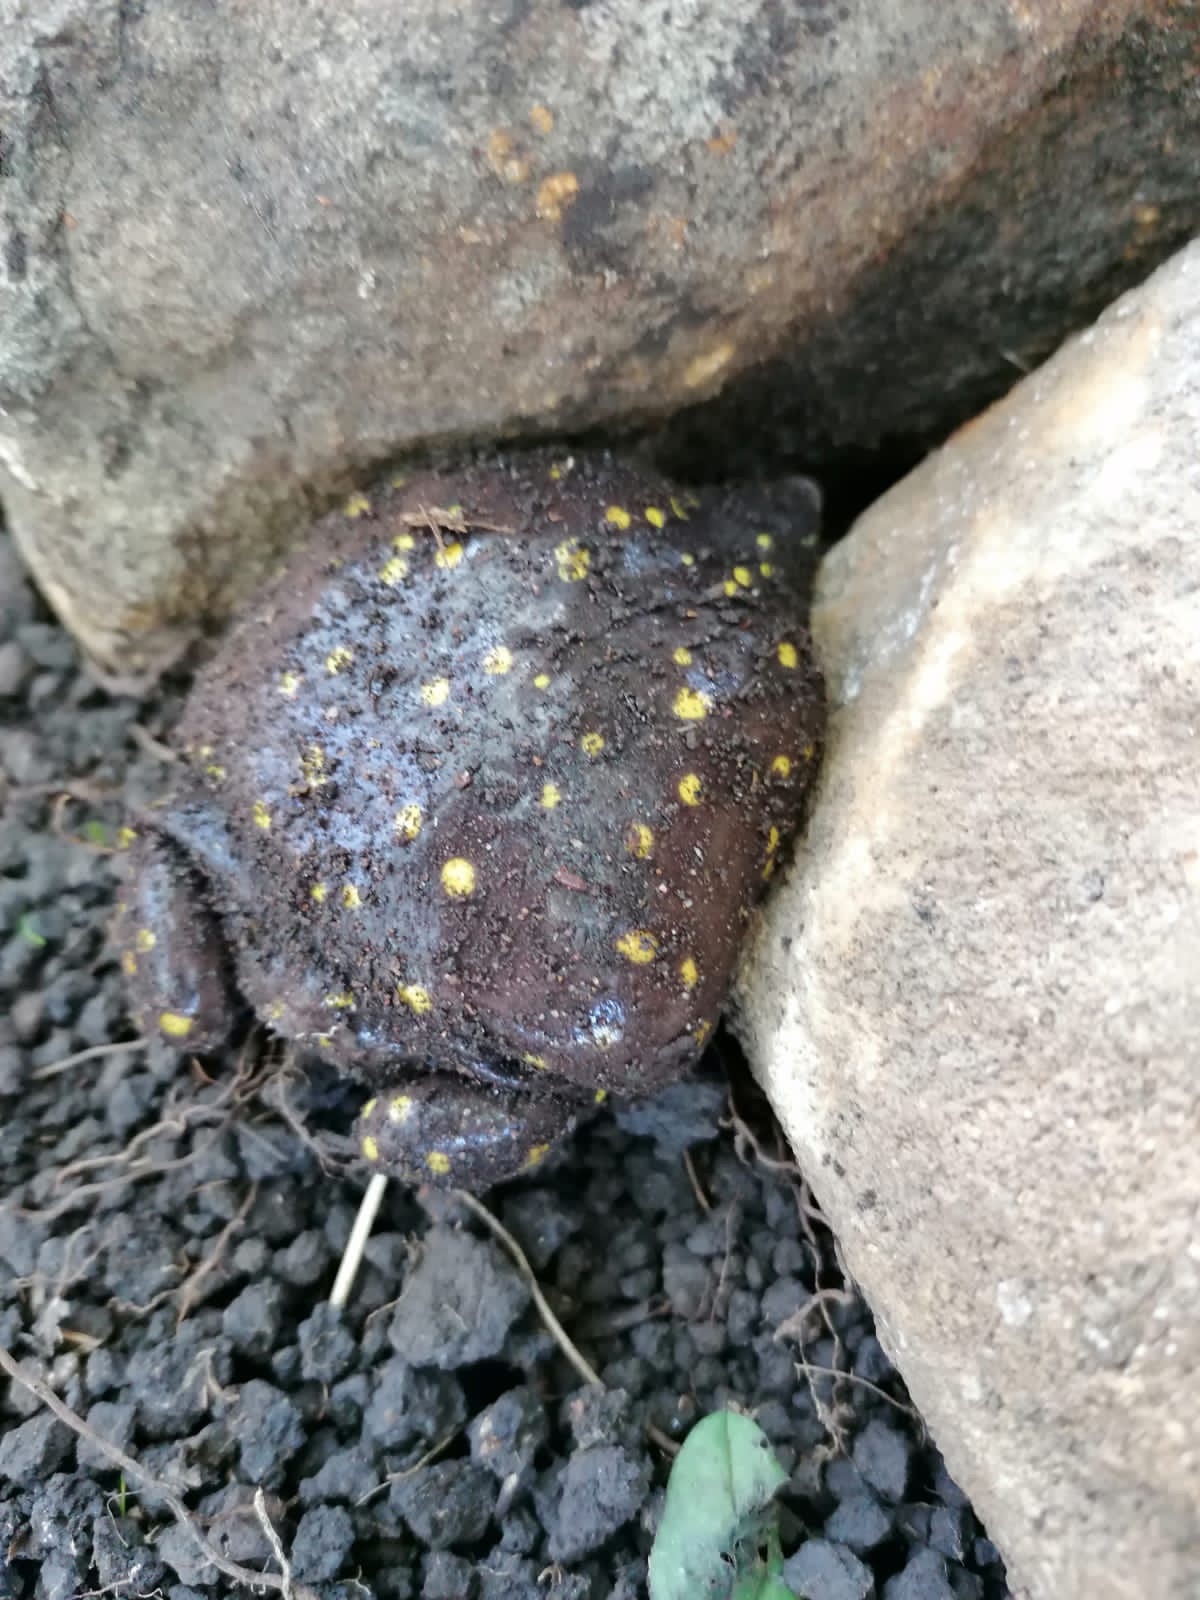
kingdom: Animalia
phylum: Chordata
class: Amphibia
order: Anura
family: Hemisotidae
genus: Hemisus
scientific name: Hemisus guttatus
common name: Spotted snout-burrower
